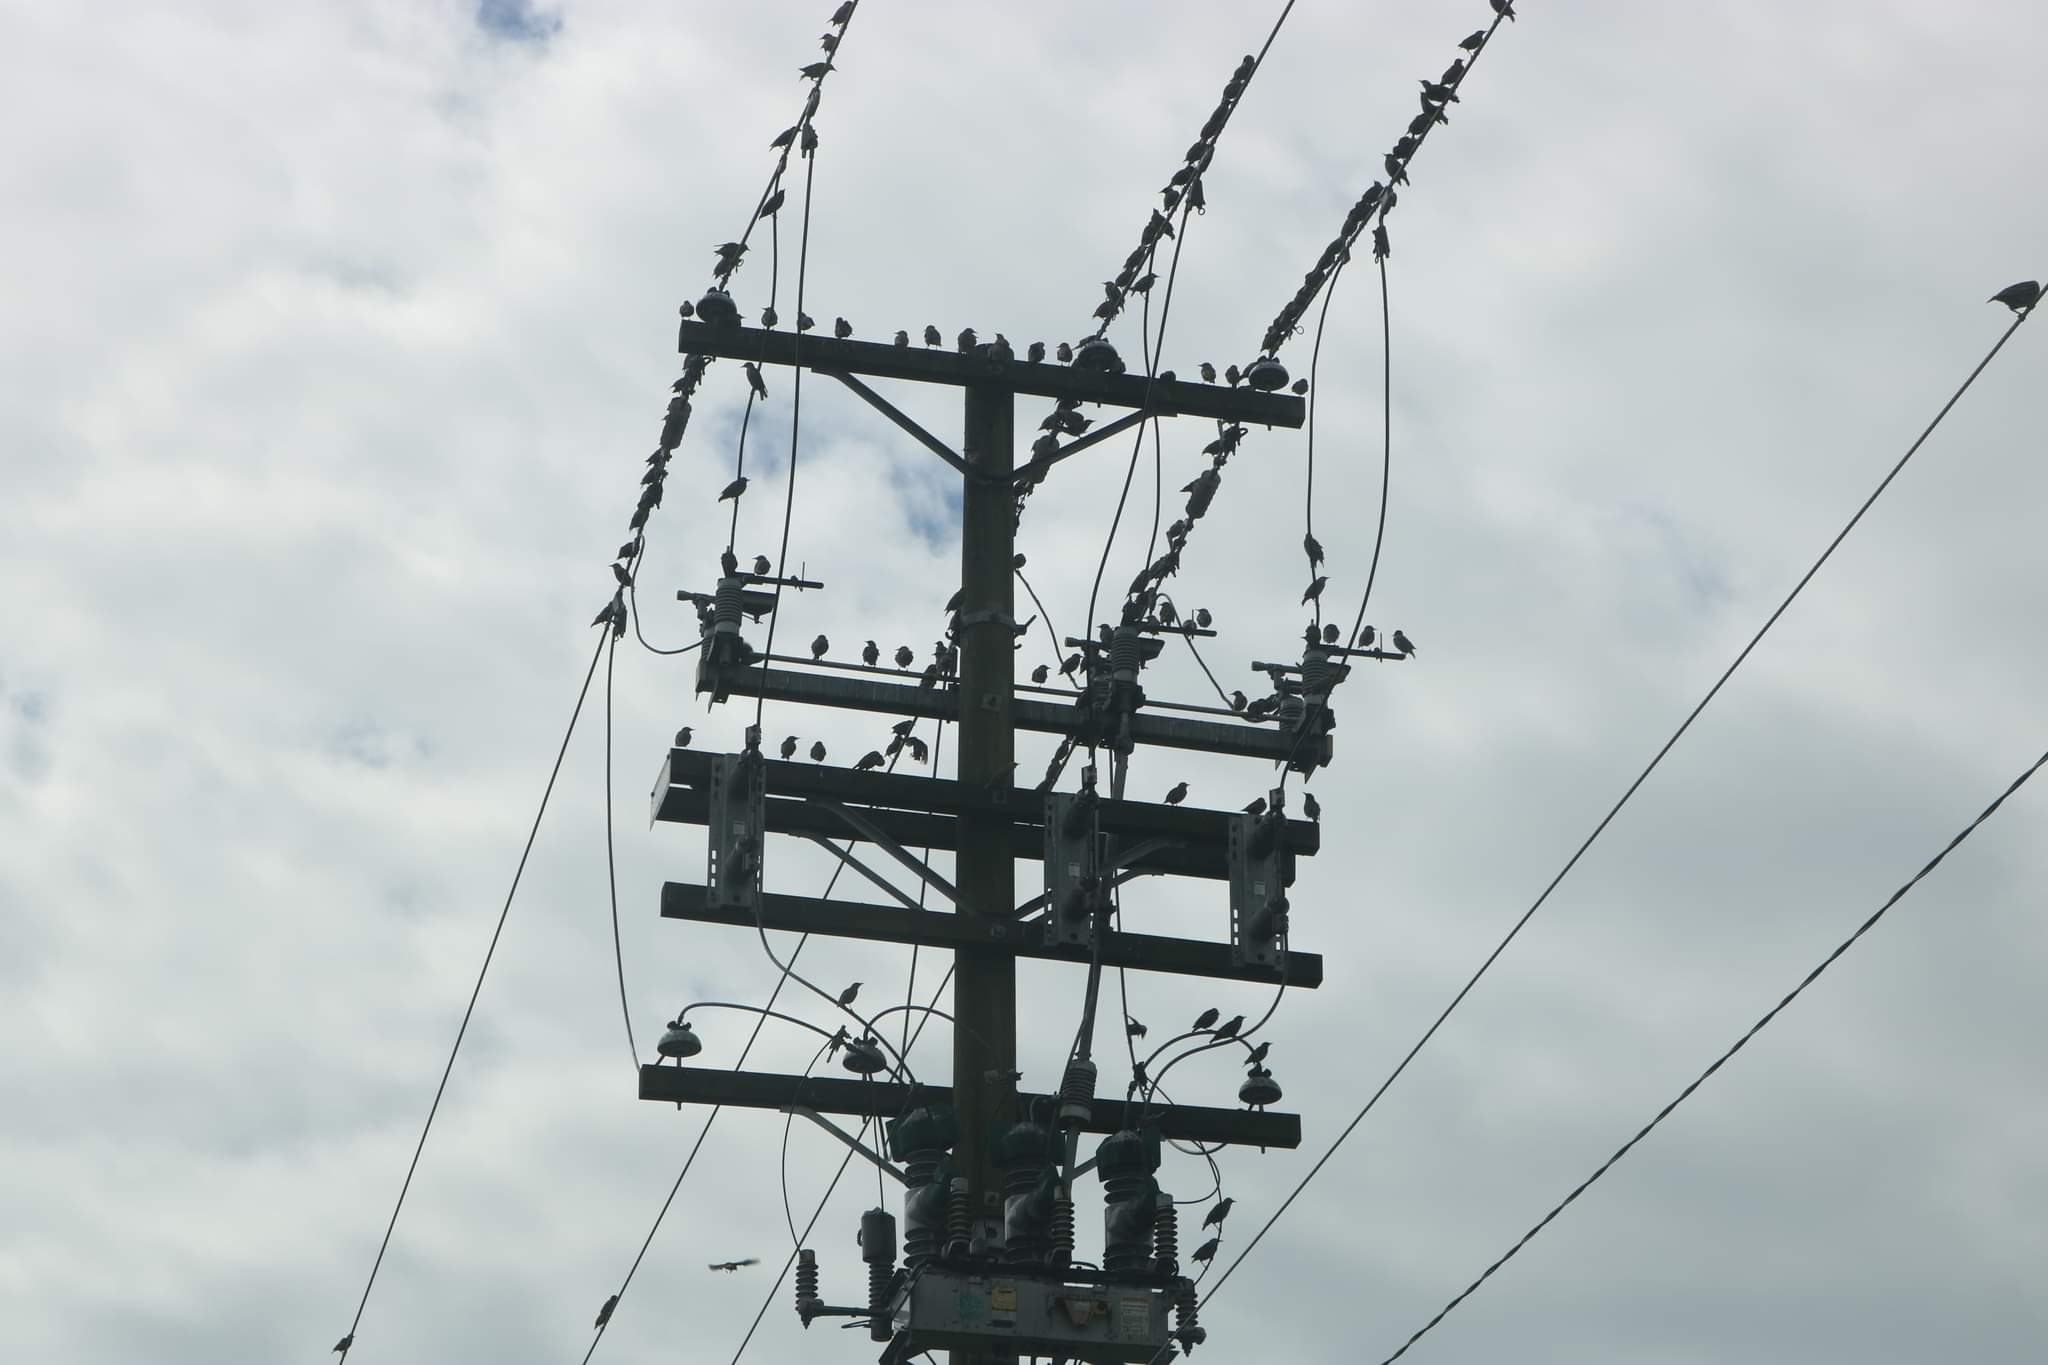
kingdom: Animalia
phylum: Chordata
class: Aves
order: Passeriformes
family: Sturnidae
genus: Sturnus
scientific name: Sturnus vulgaris
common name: Common starling
